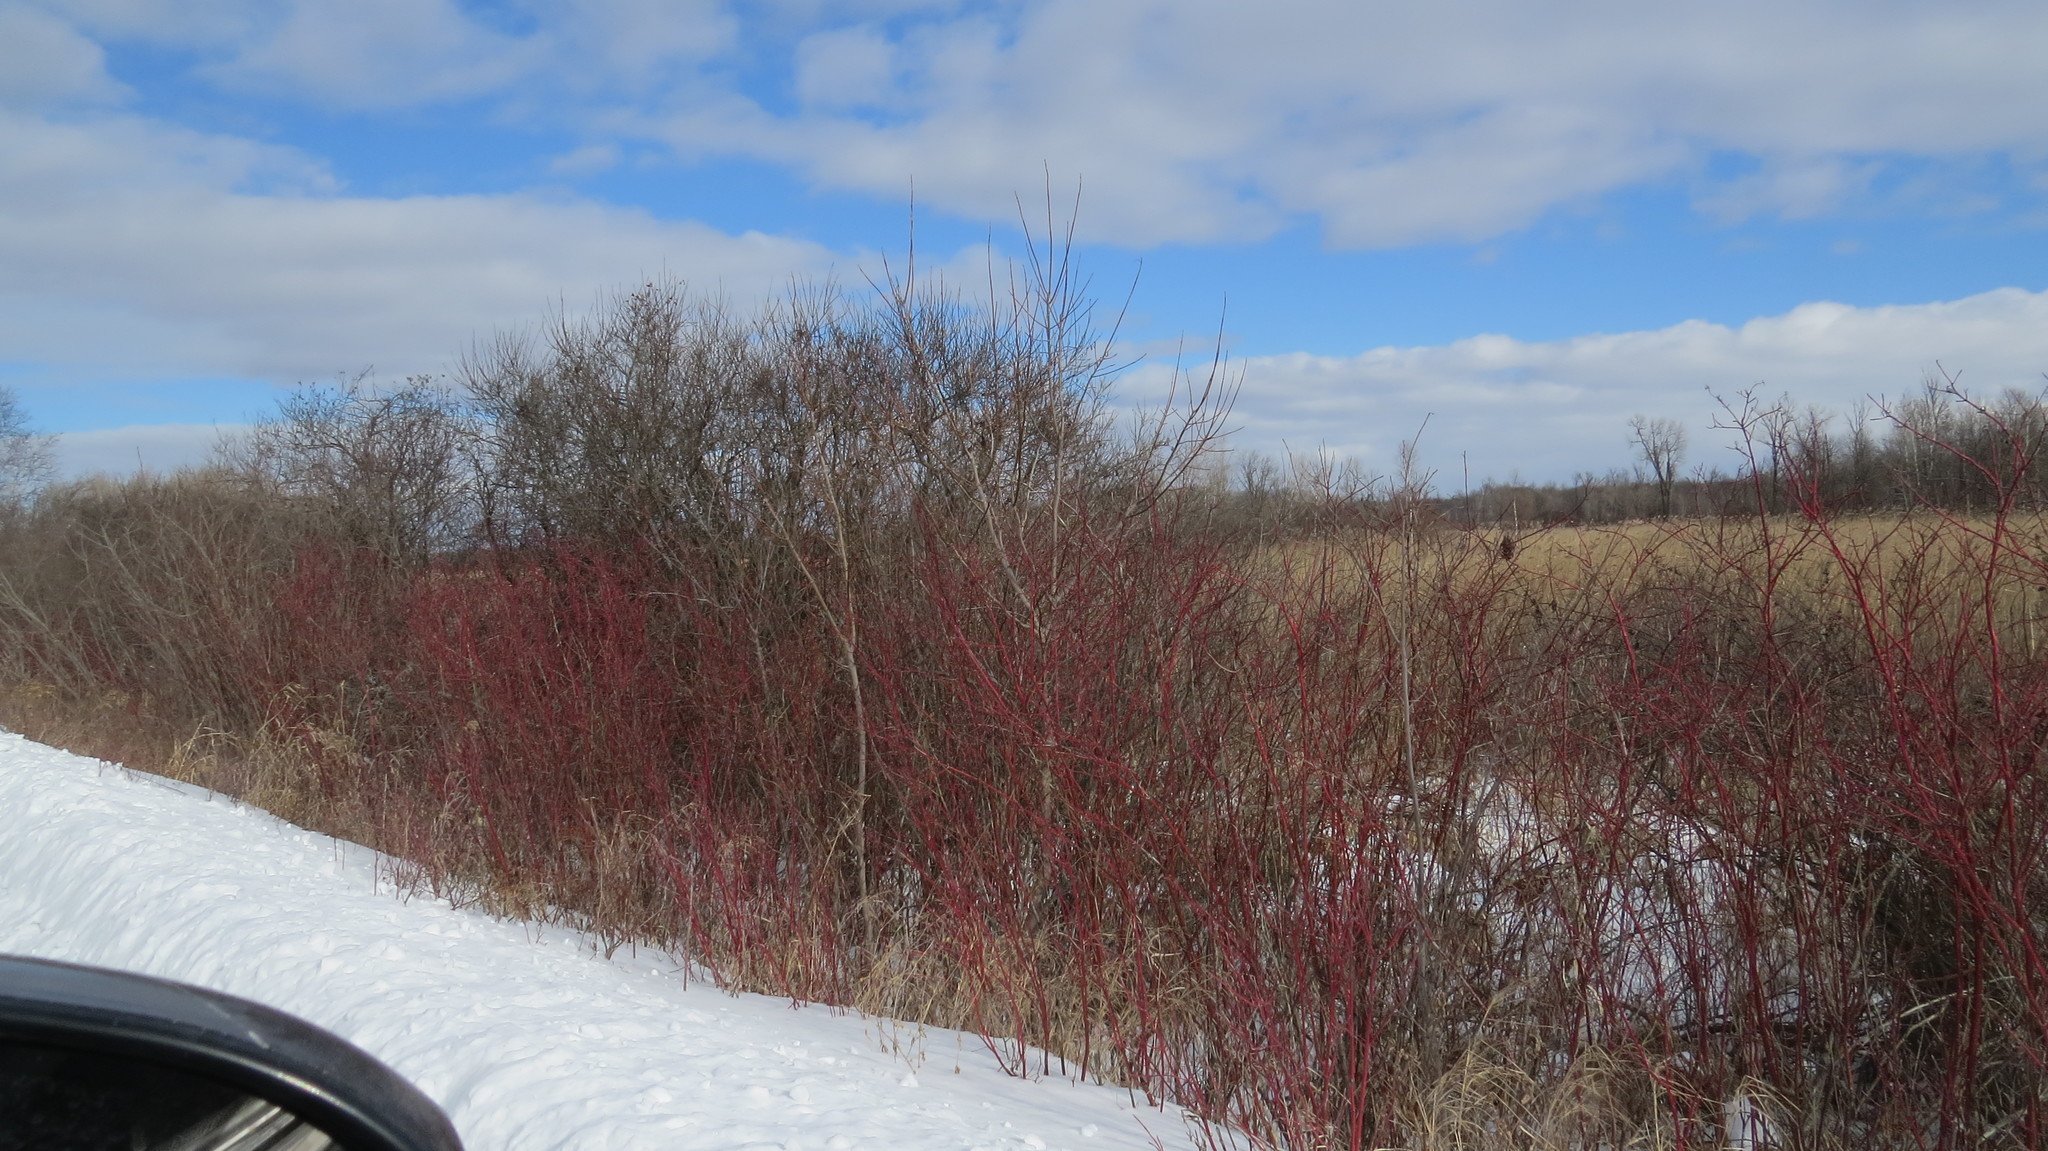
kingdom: Plantae
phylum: Tracheophyta
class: Magnoliopsida
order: Cornales
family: Cornaceae
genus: Cornus
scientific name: Cornus sericea
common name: Red-osier dogwood
